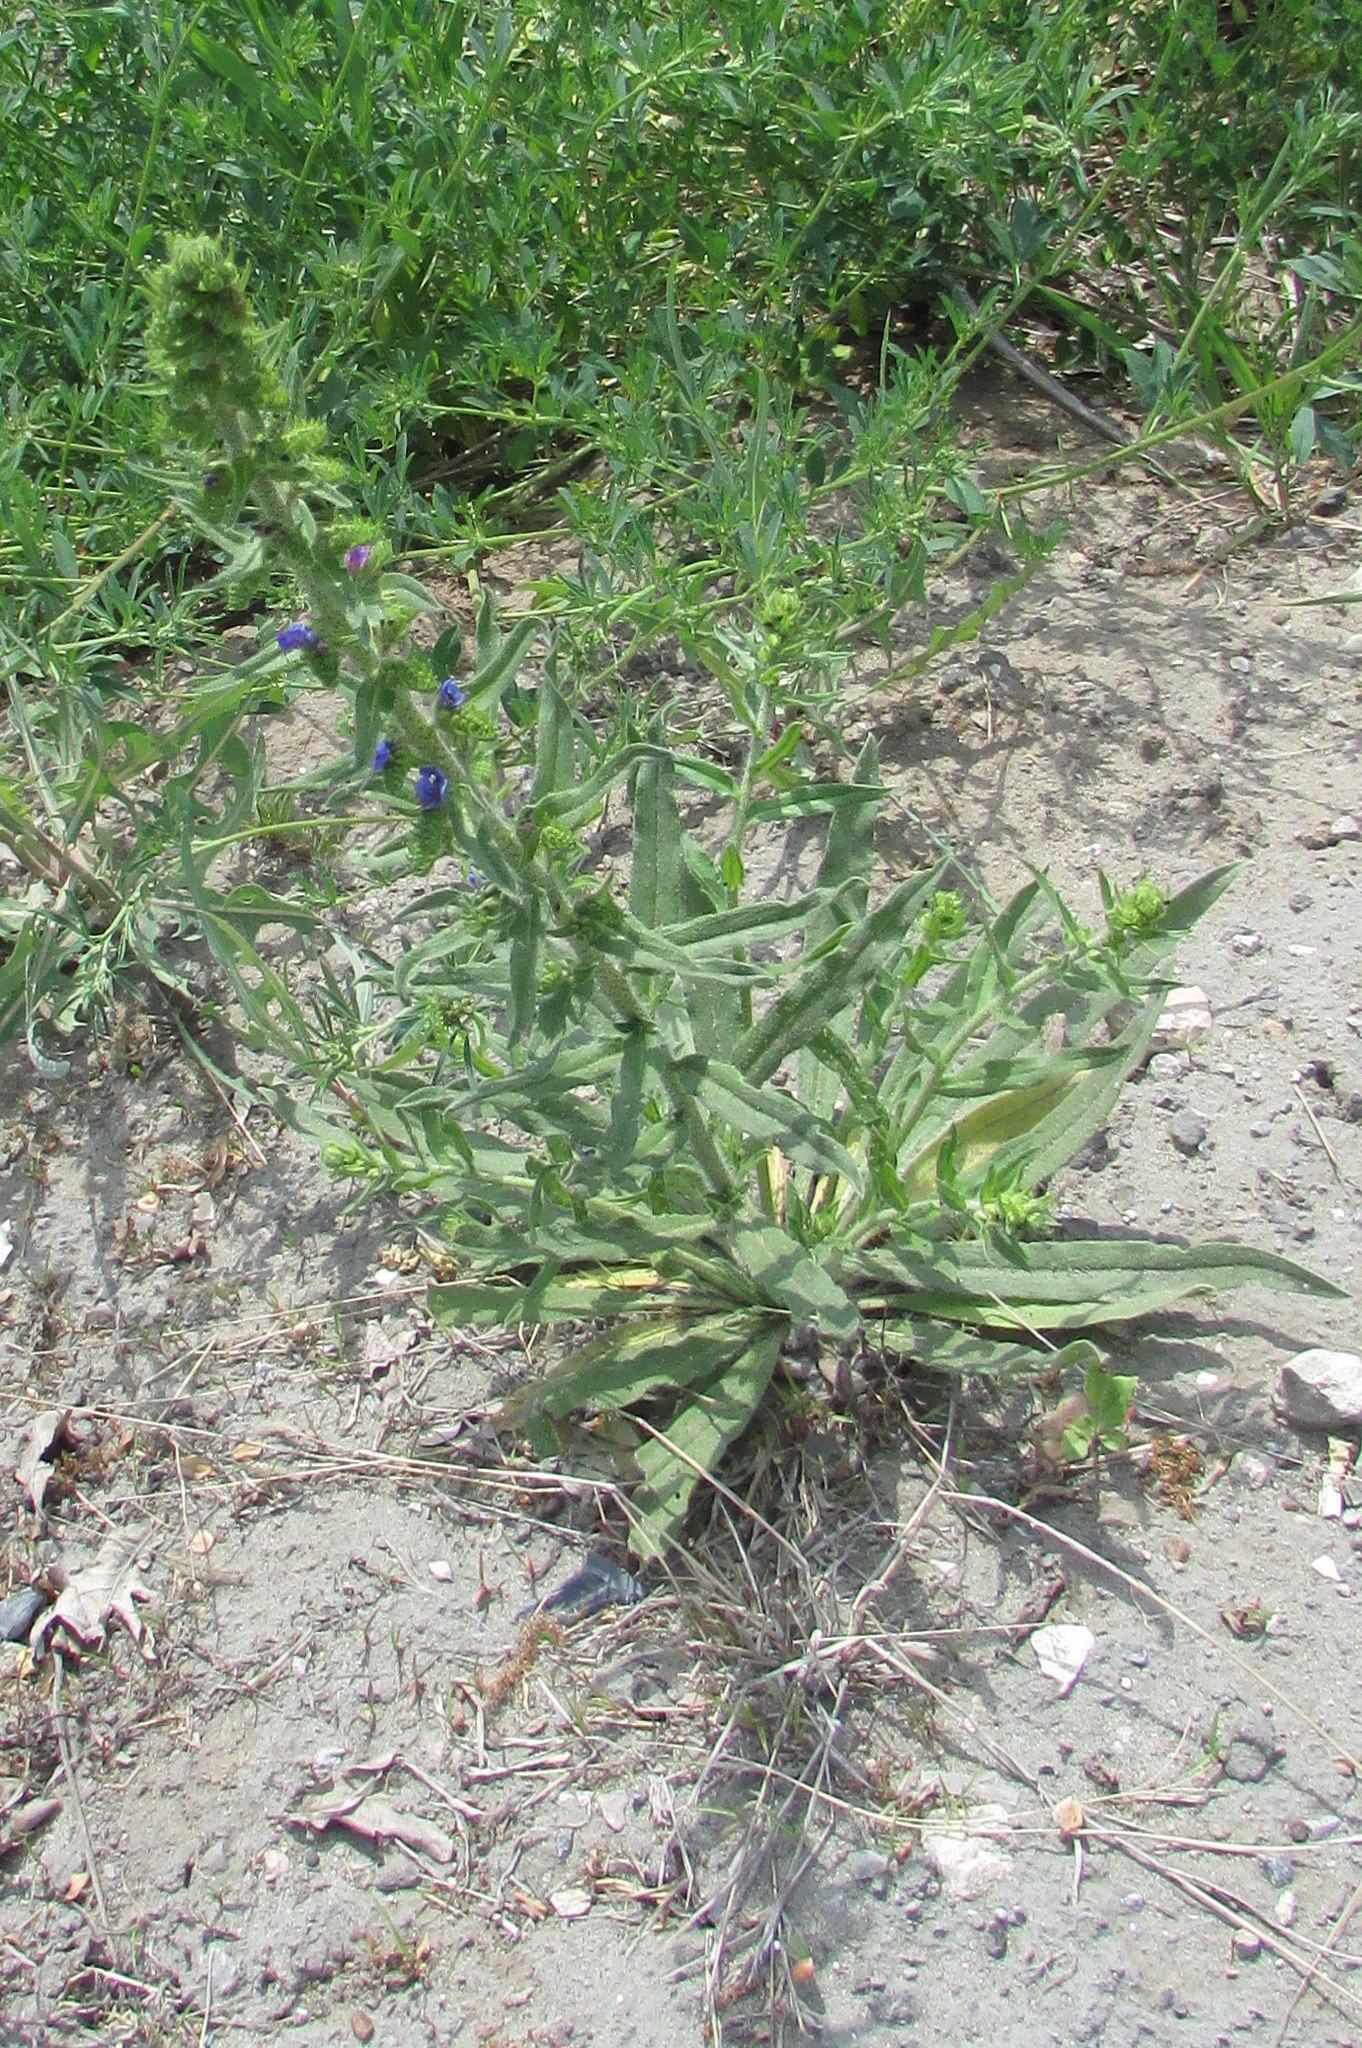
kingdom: Plantae
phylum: Tracheophyta
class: Magnoliopsida
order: Boraginales
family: Boraginaceae
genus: Echium
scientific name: Echium vulgare
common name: Common viper's bugloss
